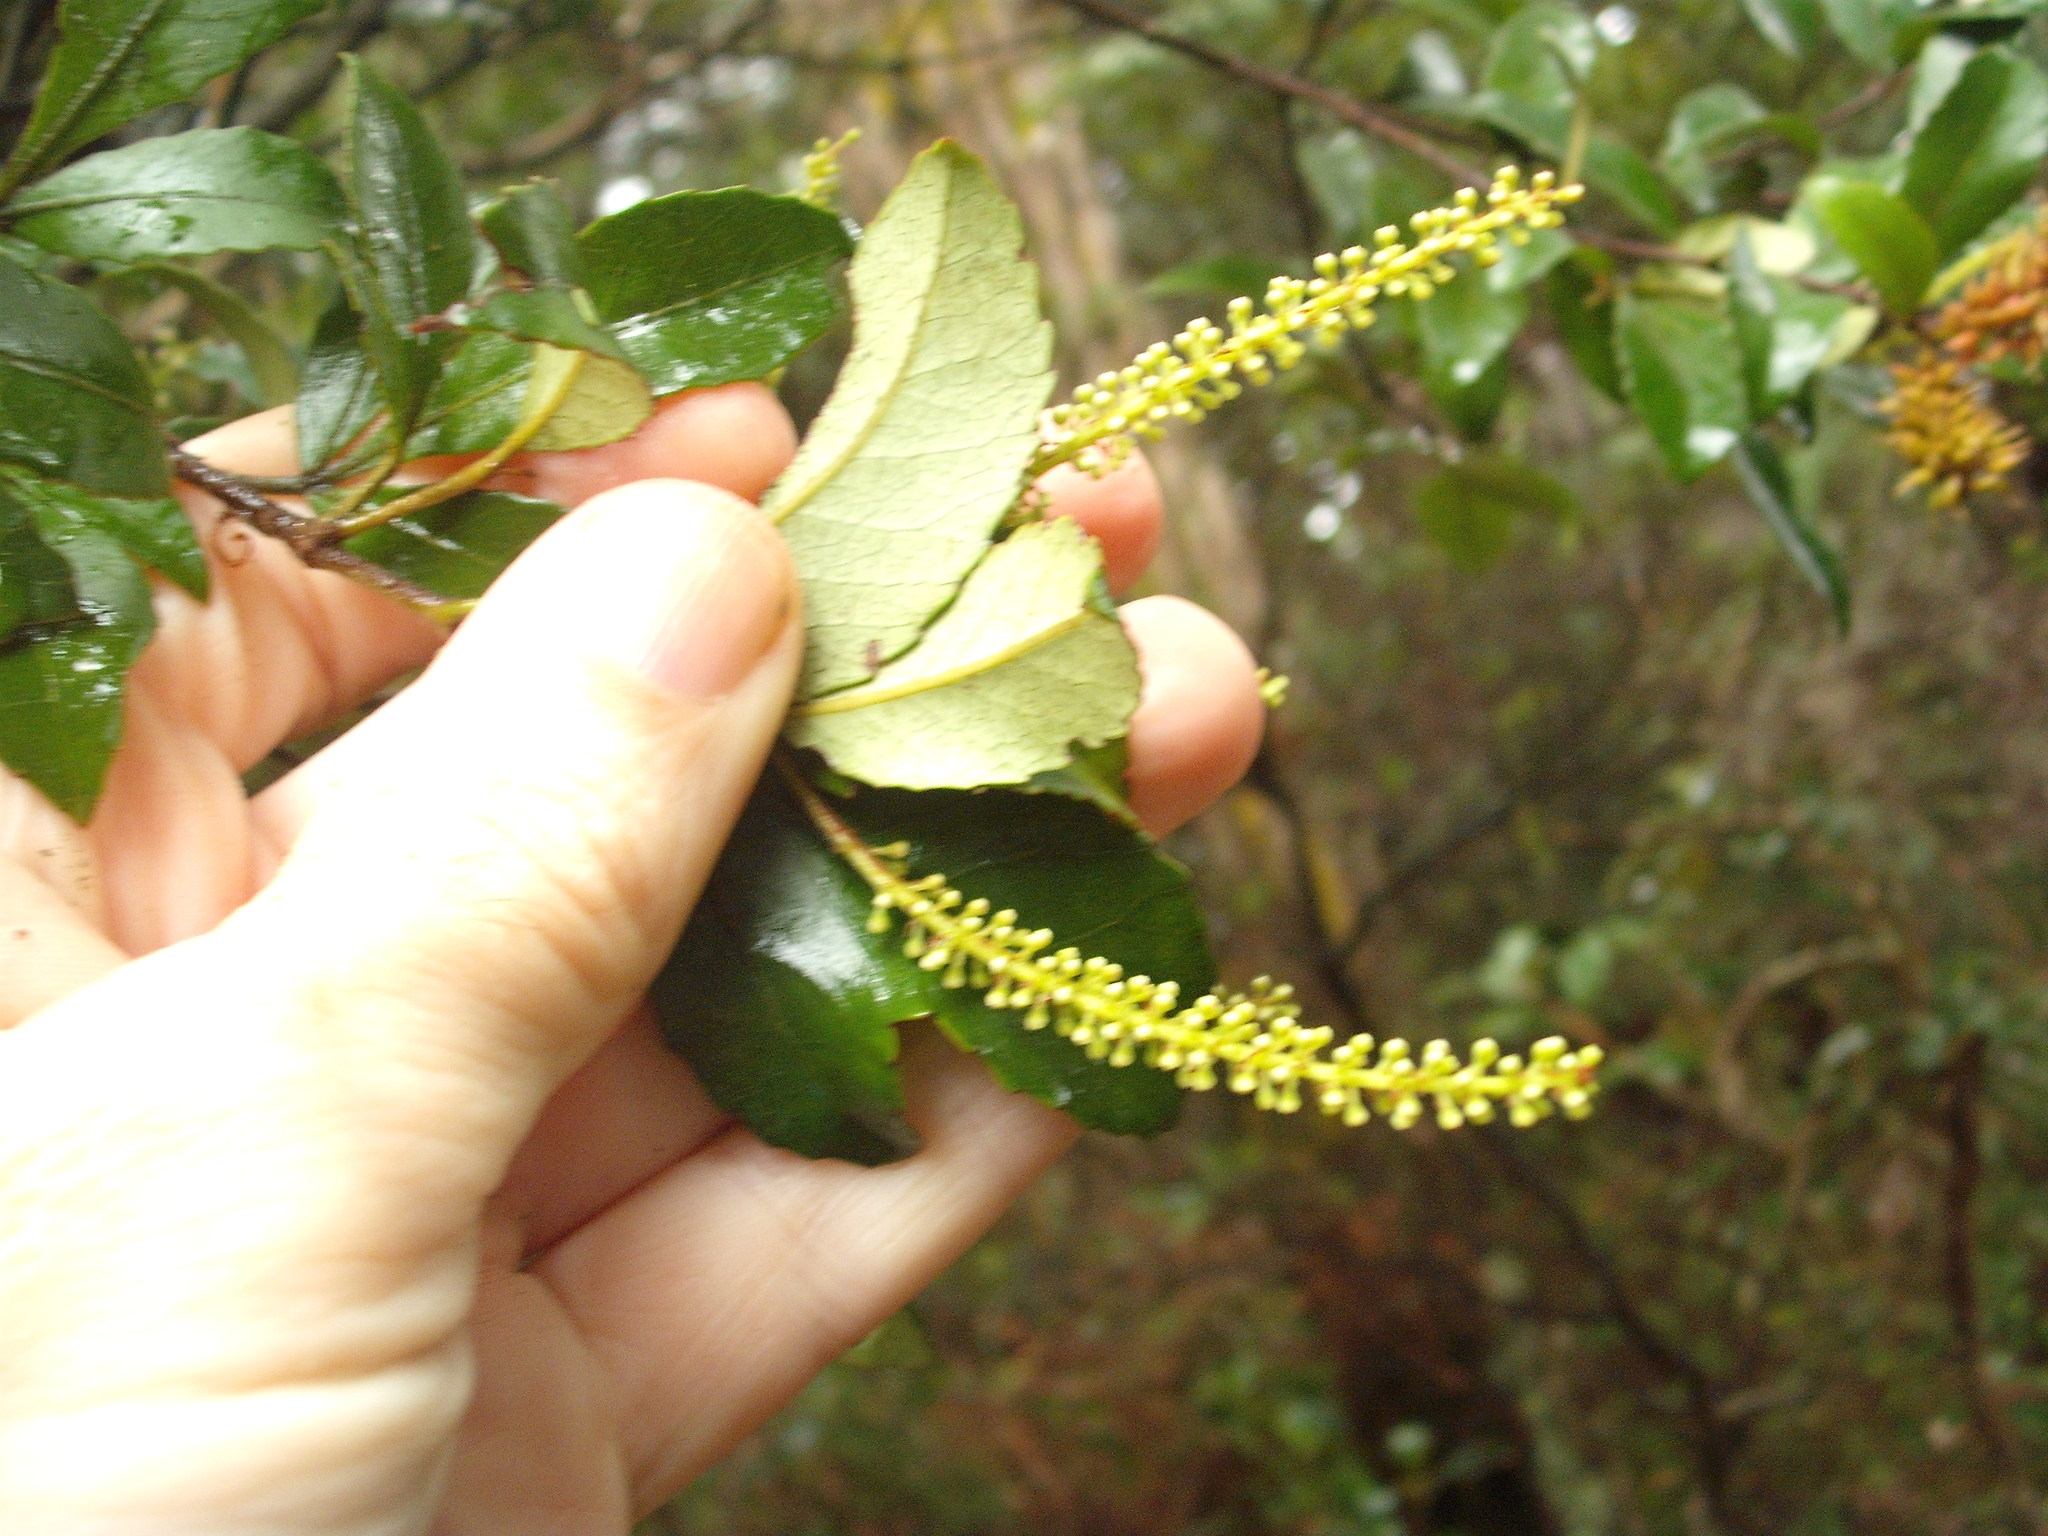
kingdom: Plantae
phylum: Tracheophyta
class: Magnoliopsida
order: Oxalidales
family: Cunoniaceae
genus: Pterophylla
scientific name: Pterophylla sylvicola
